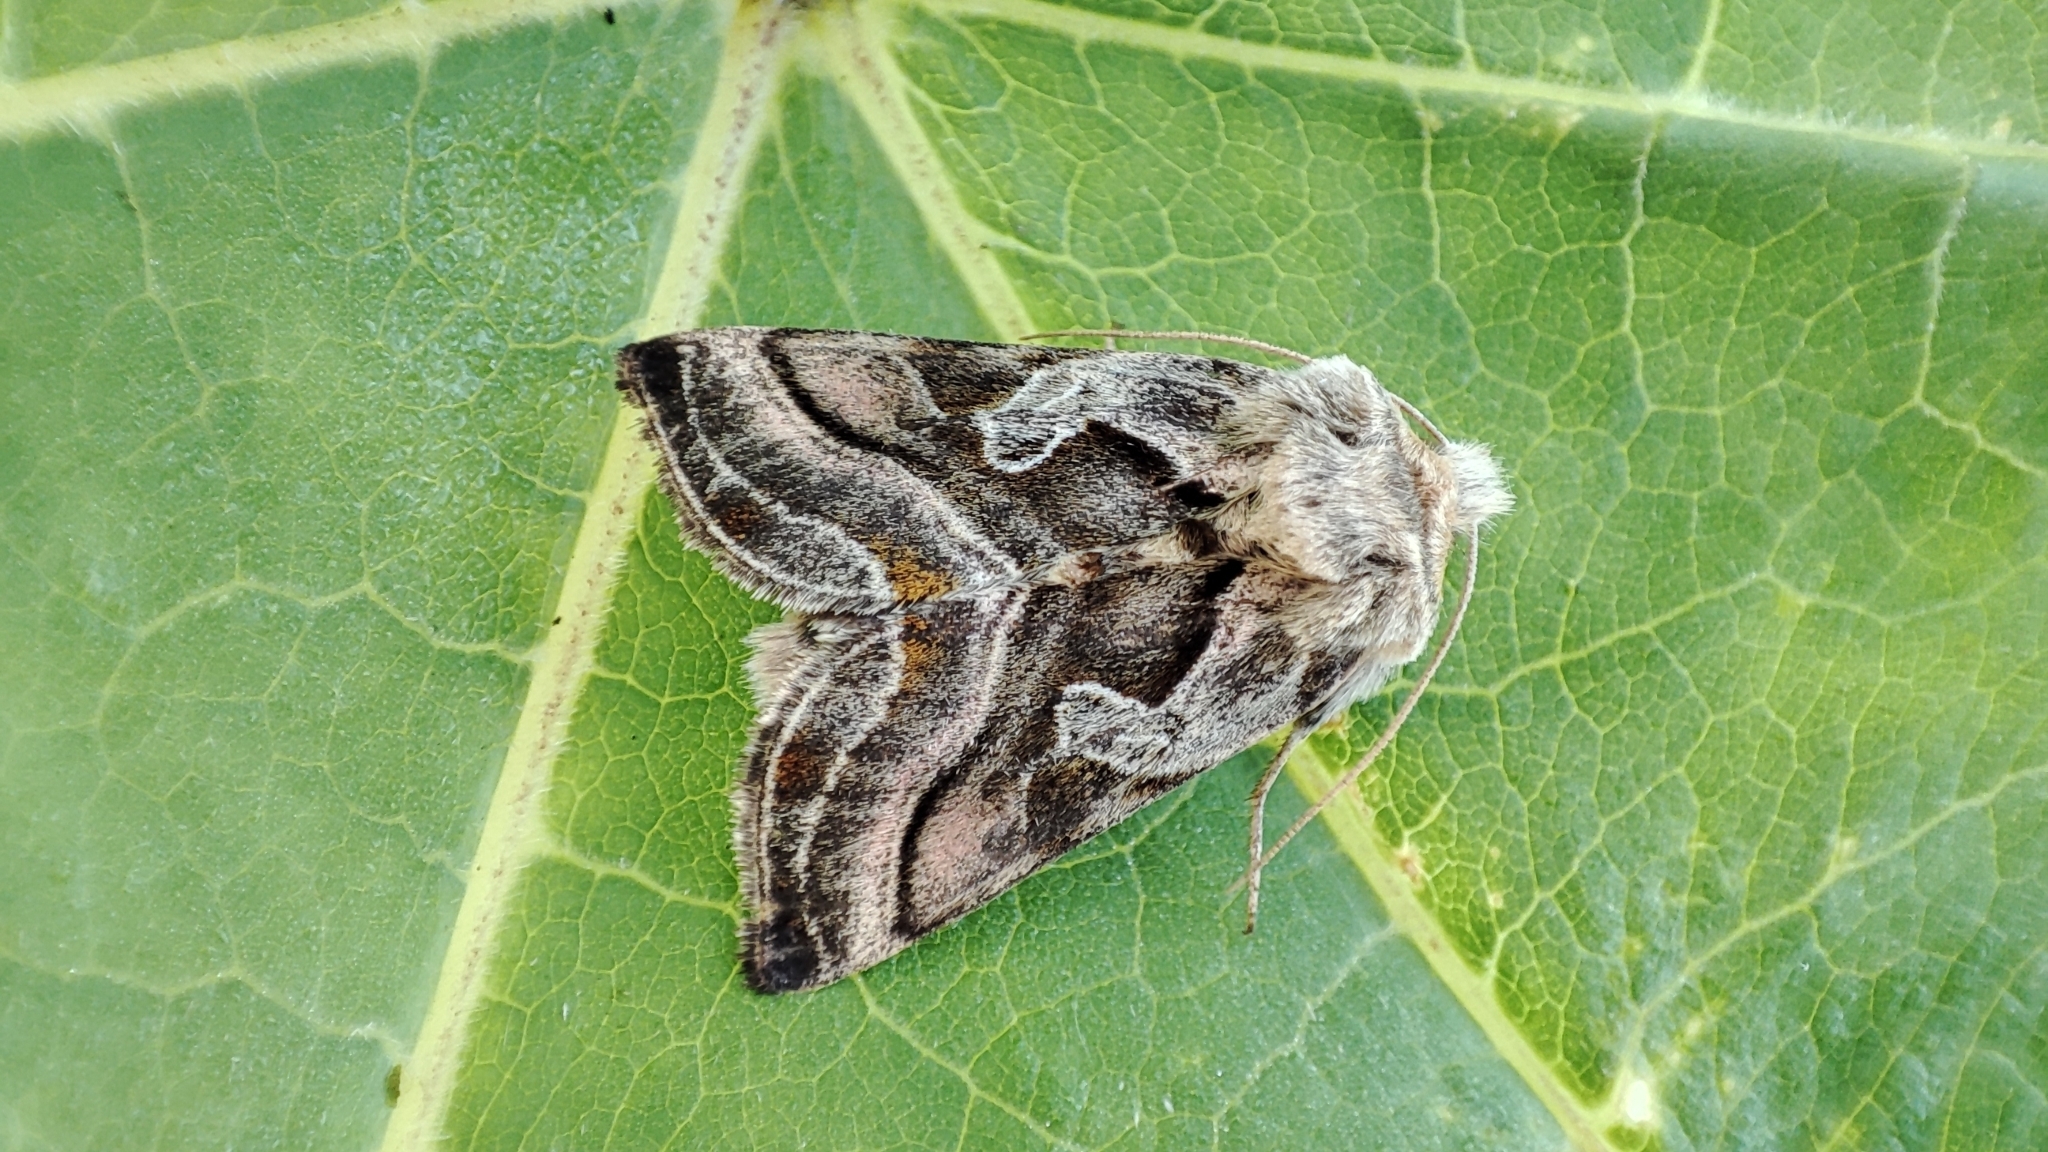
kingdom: Animalia
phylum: Arthropoda
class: Insecta
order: Lepidoptera
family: Noctuidae
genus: Euchalcia
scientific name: Euchalcia variabilis
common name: Purple-shaded gem
